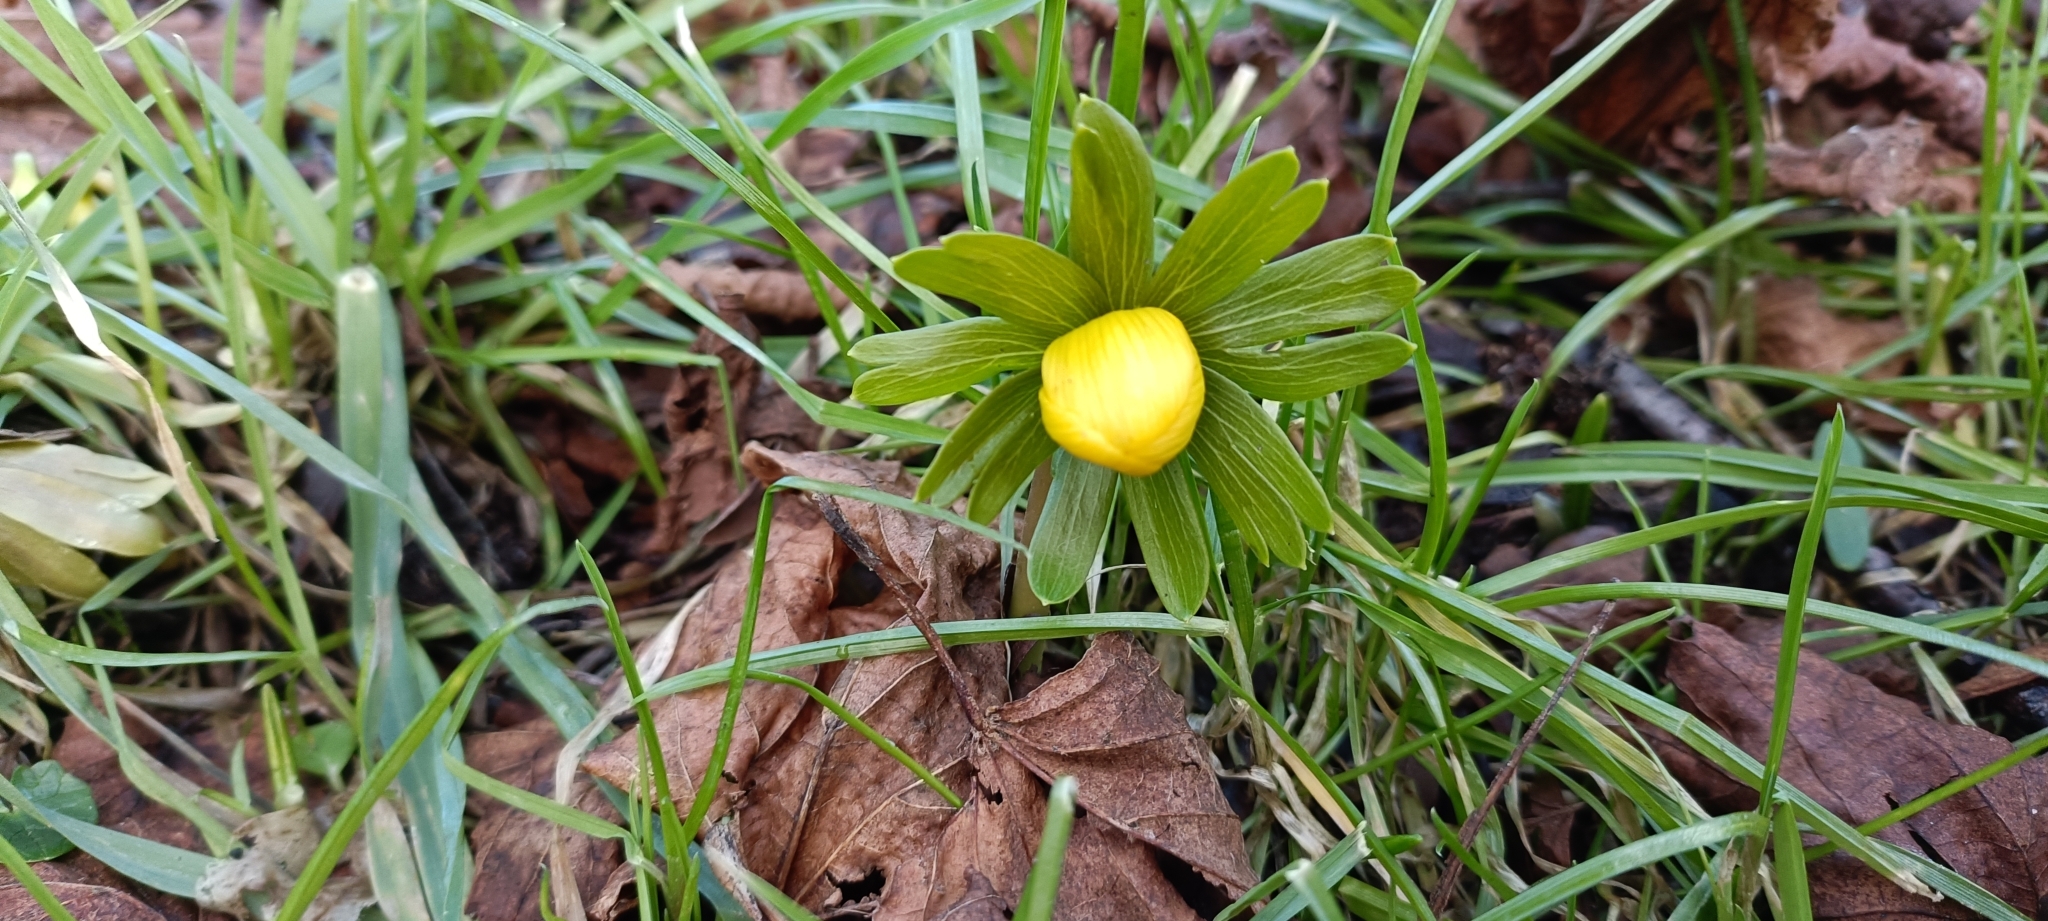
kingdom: Plantae
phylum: Tracheophyta
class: Magnoliopsida
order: Ranunculales
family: Ranunculaceae
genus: Eranthis
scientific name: Eranthis hyemalis
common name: Winter aconite
